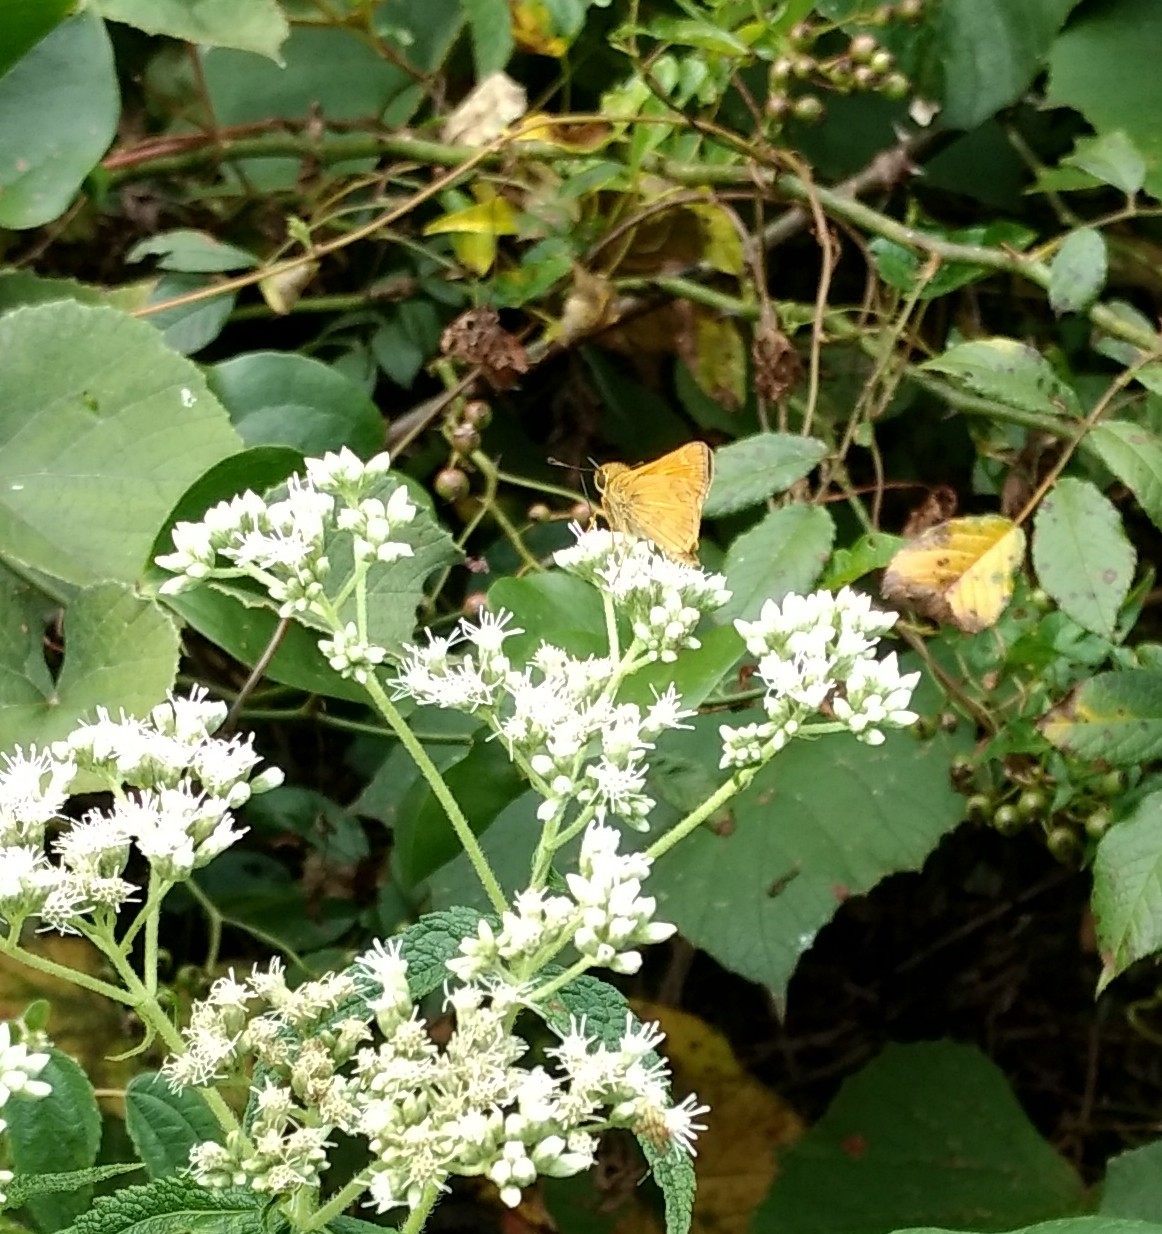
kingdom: Animalia
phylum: Arthropoda
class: Insecta
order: Lepidoptera
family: Hesperiidae
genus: Atalopedes
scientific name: Atalopedes
